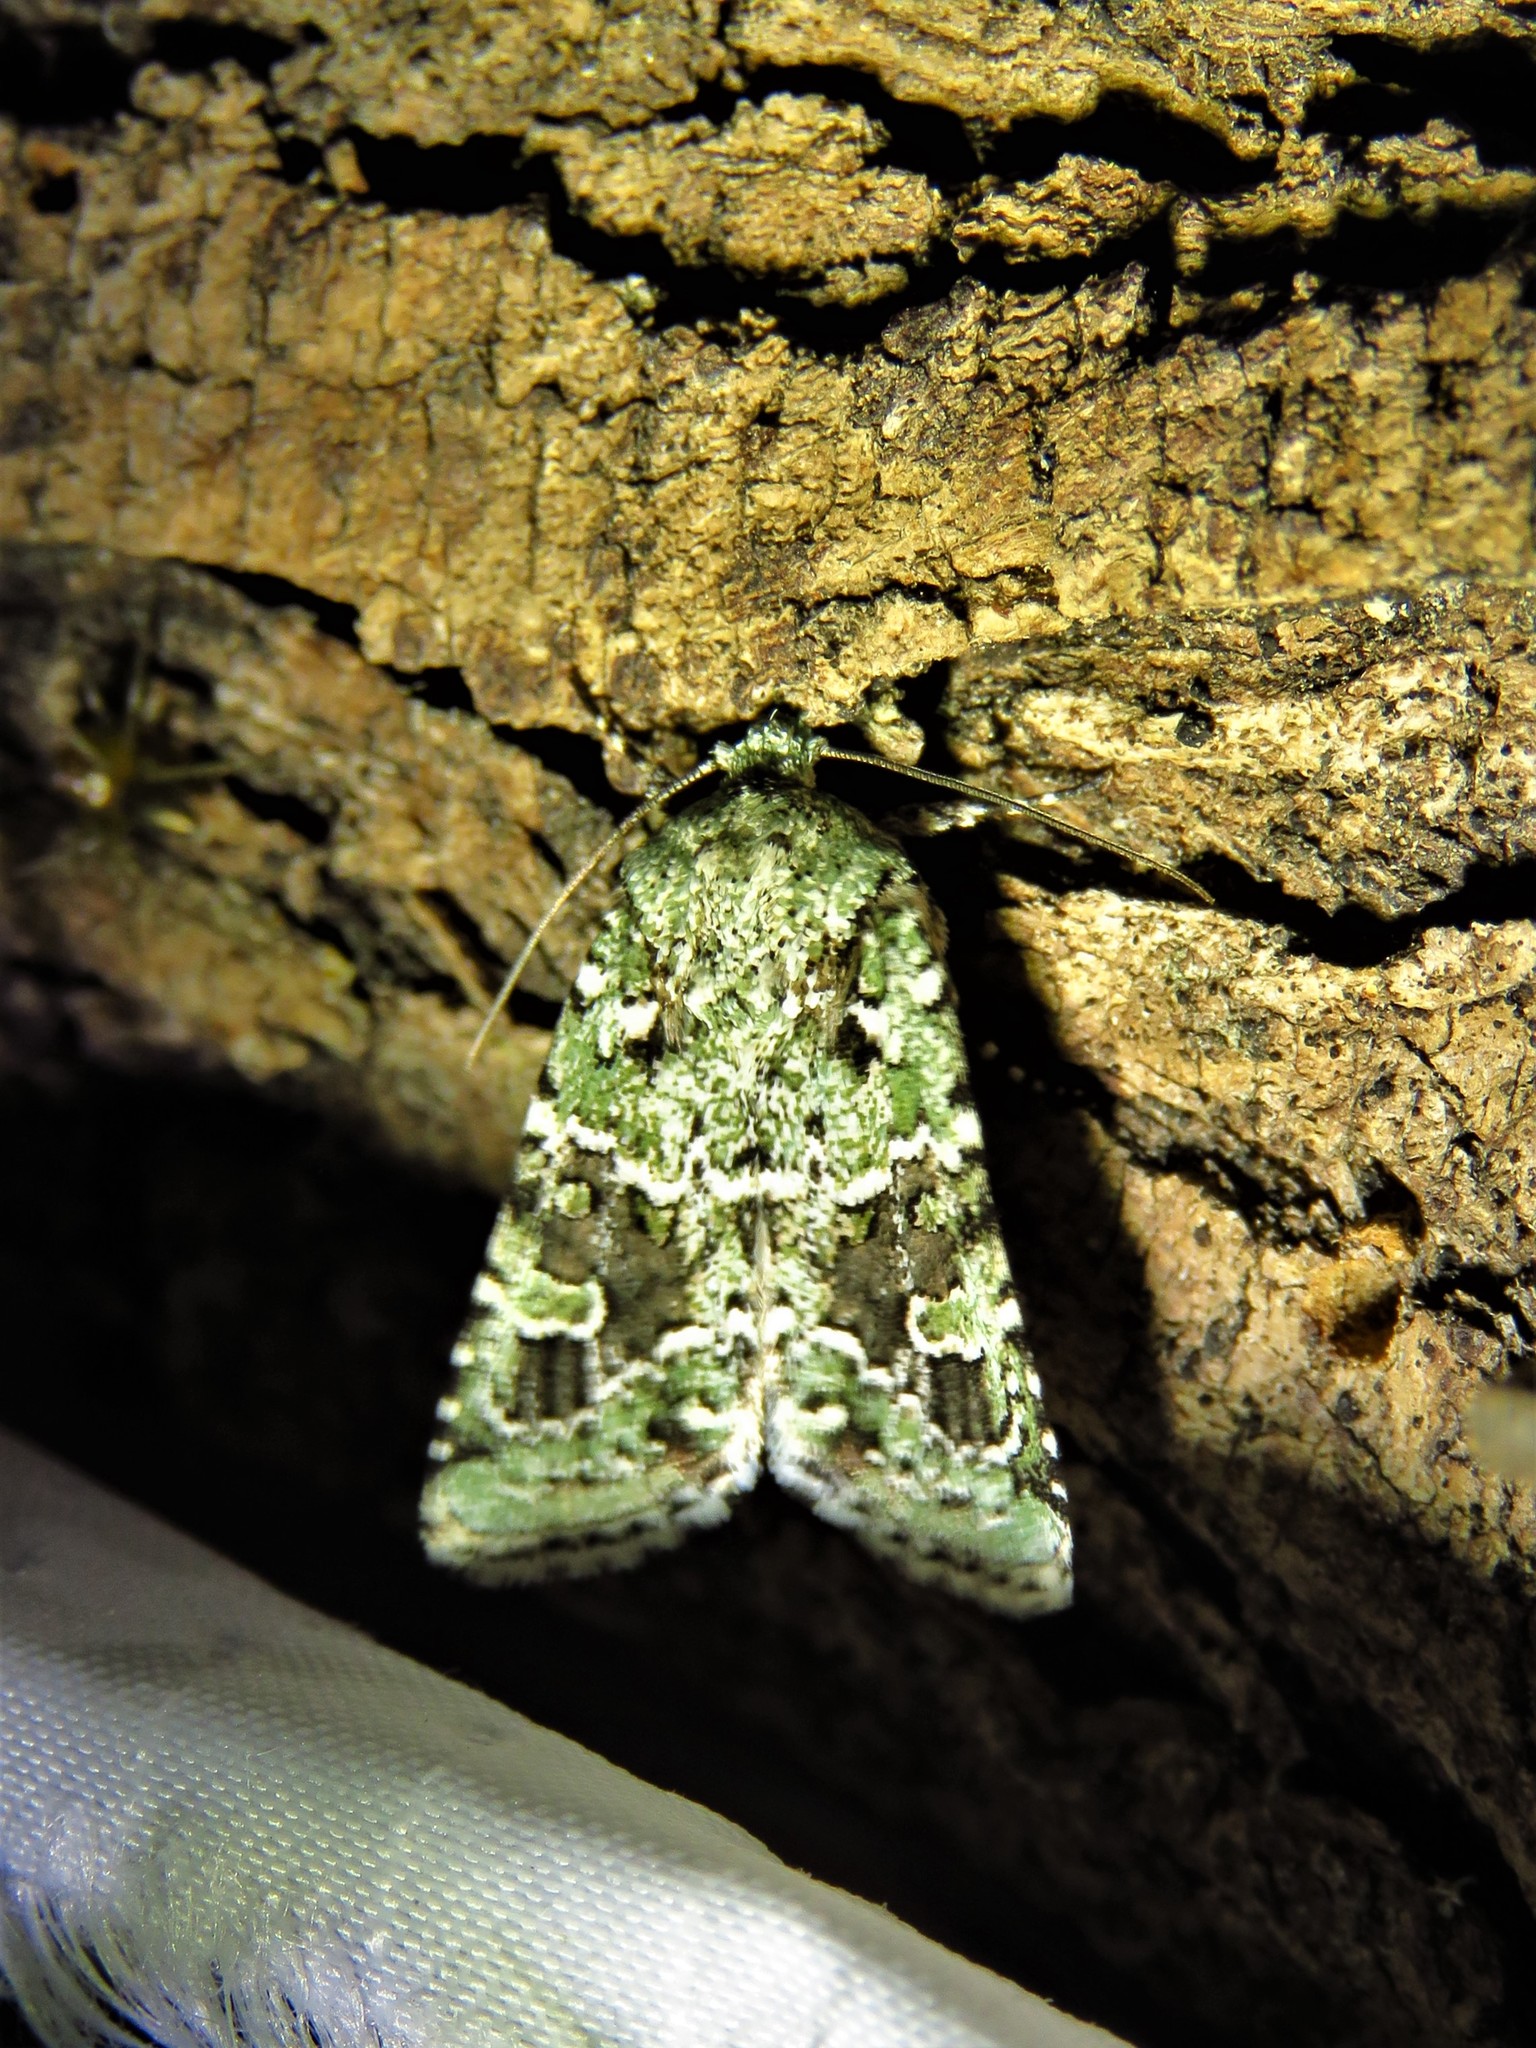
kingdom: Animalia
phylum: Arthropoda
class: Insecta
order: Lepidoptera
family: Noctuidae
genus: Lacinipolia
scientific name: Lacinipolia laudabilis
